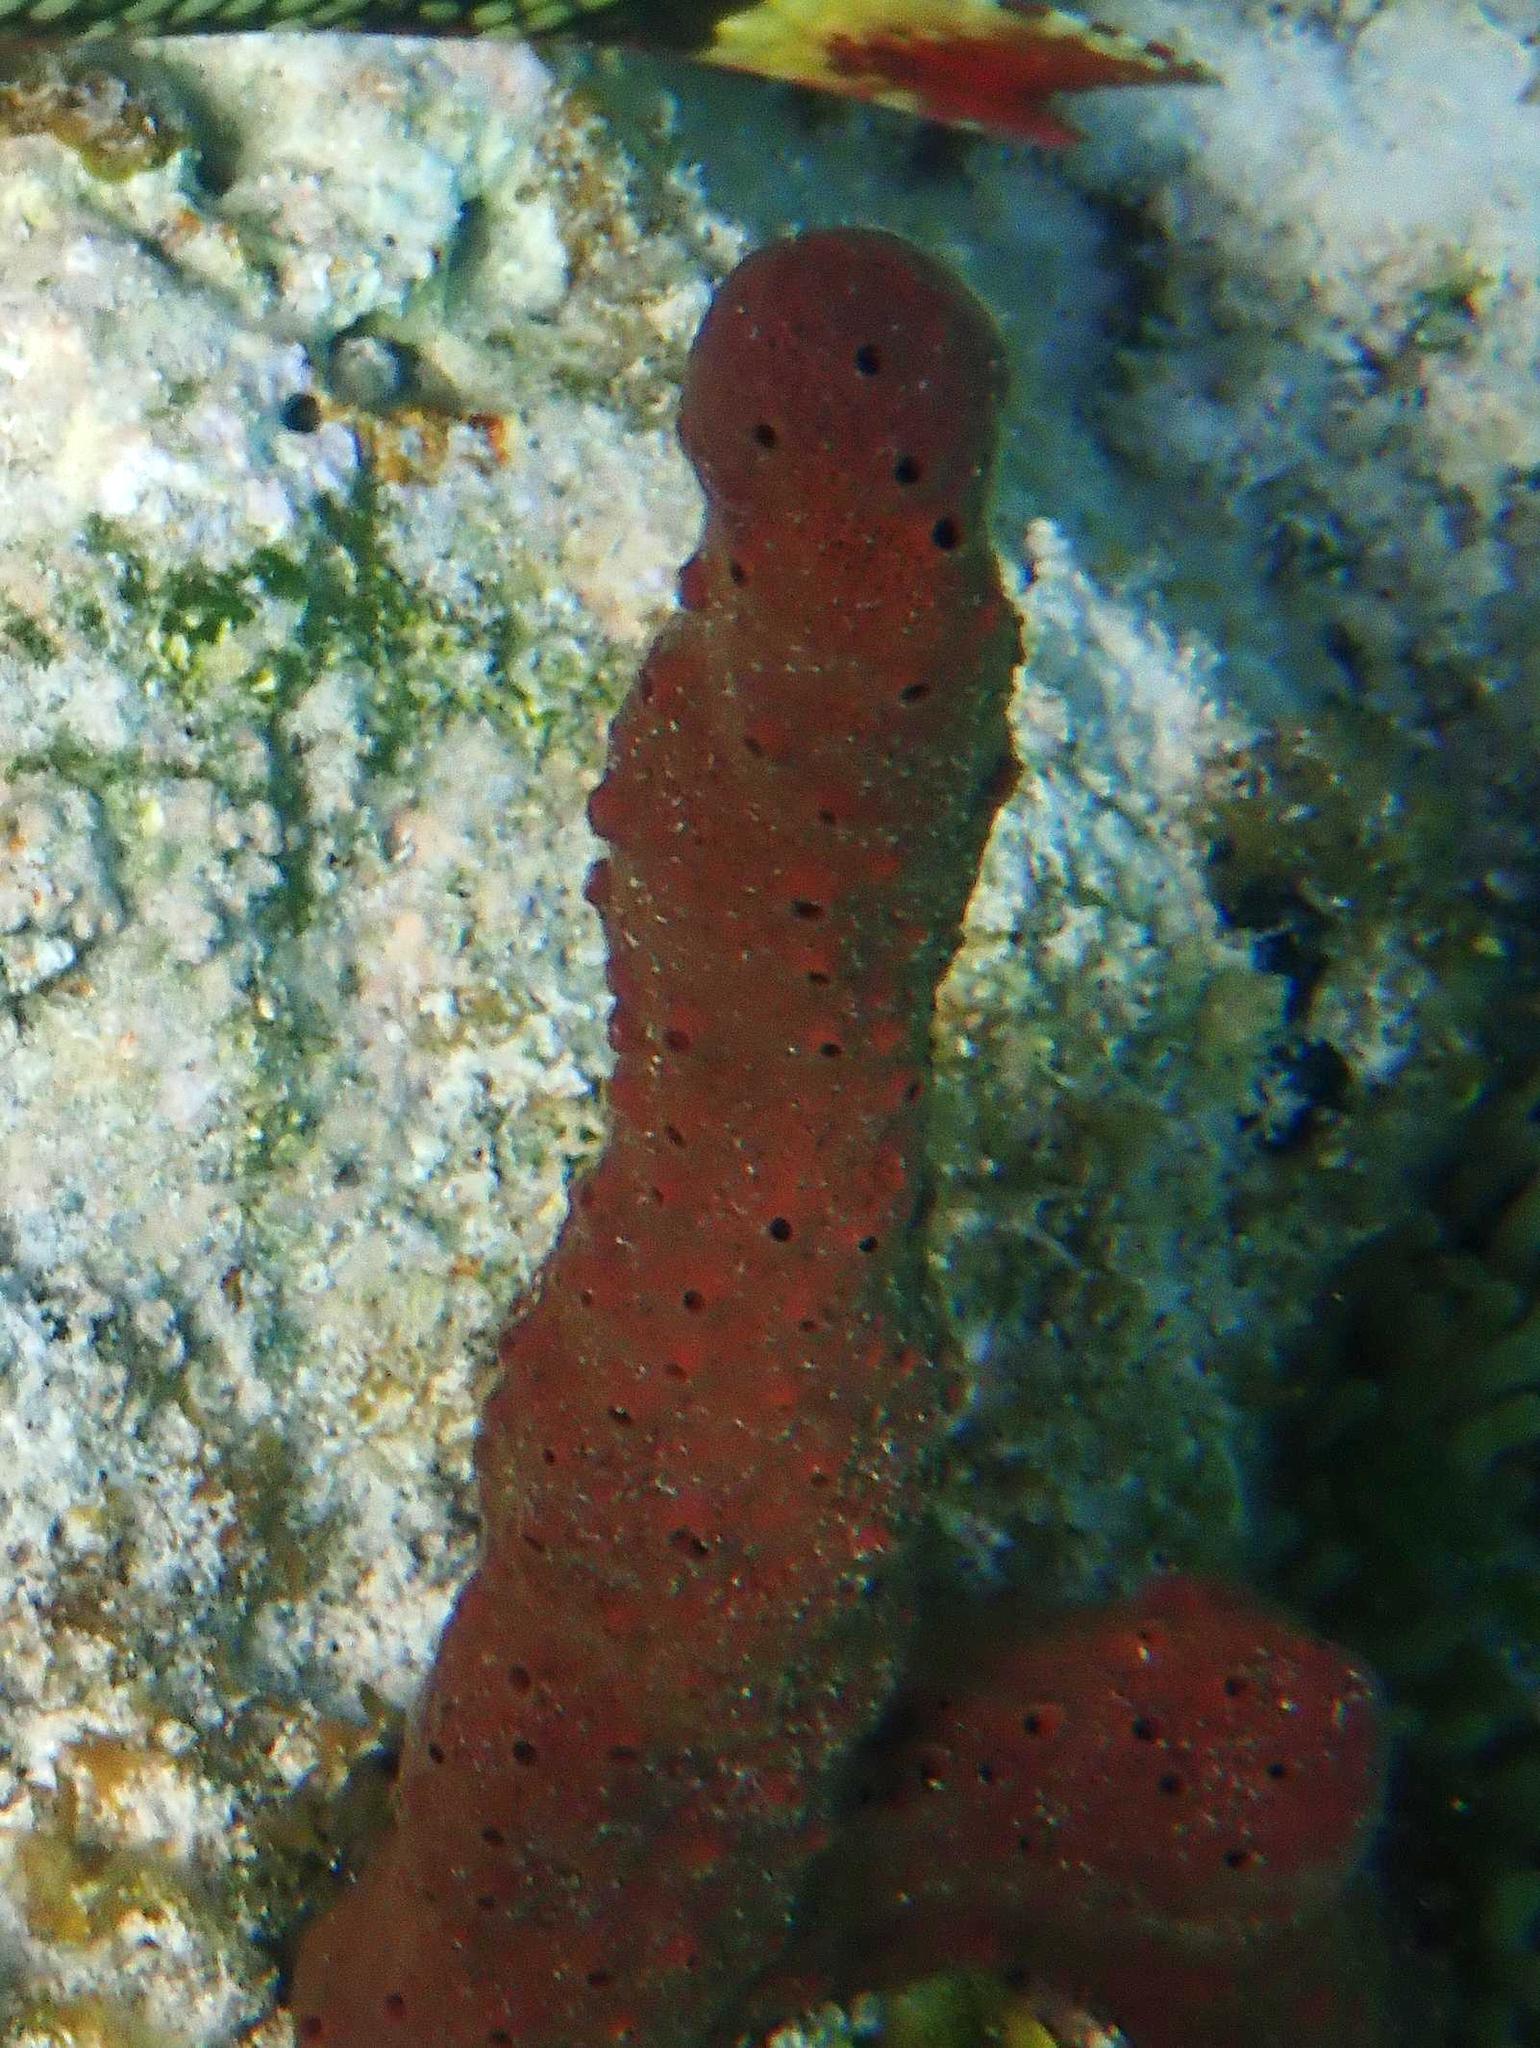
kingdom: Animalia
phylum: Porifera
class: Demospongiae
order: Haplosclerida
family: Niphatidae
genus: Amphimedon
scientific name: Amphimedon compressa
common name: Red sponge
